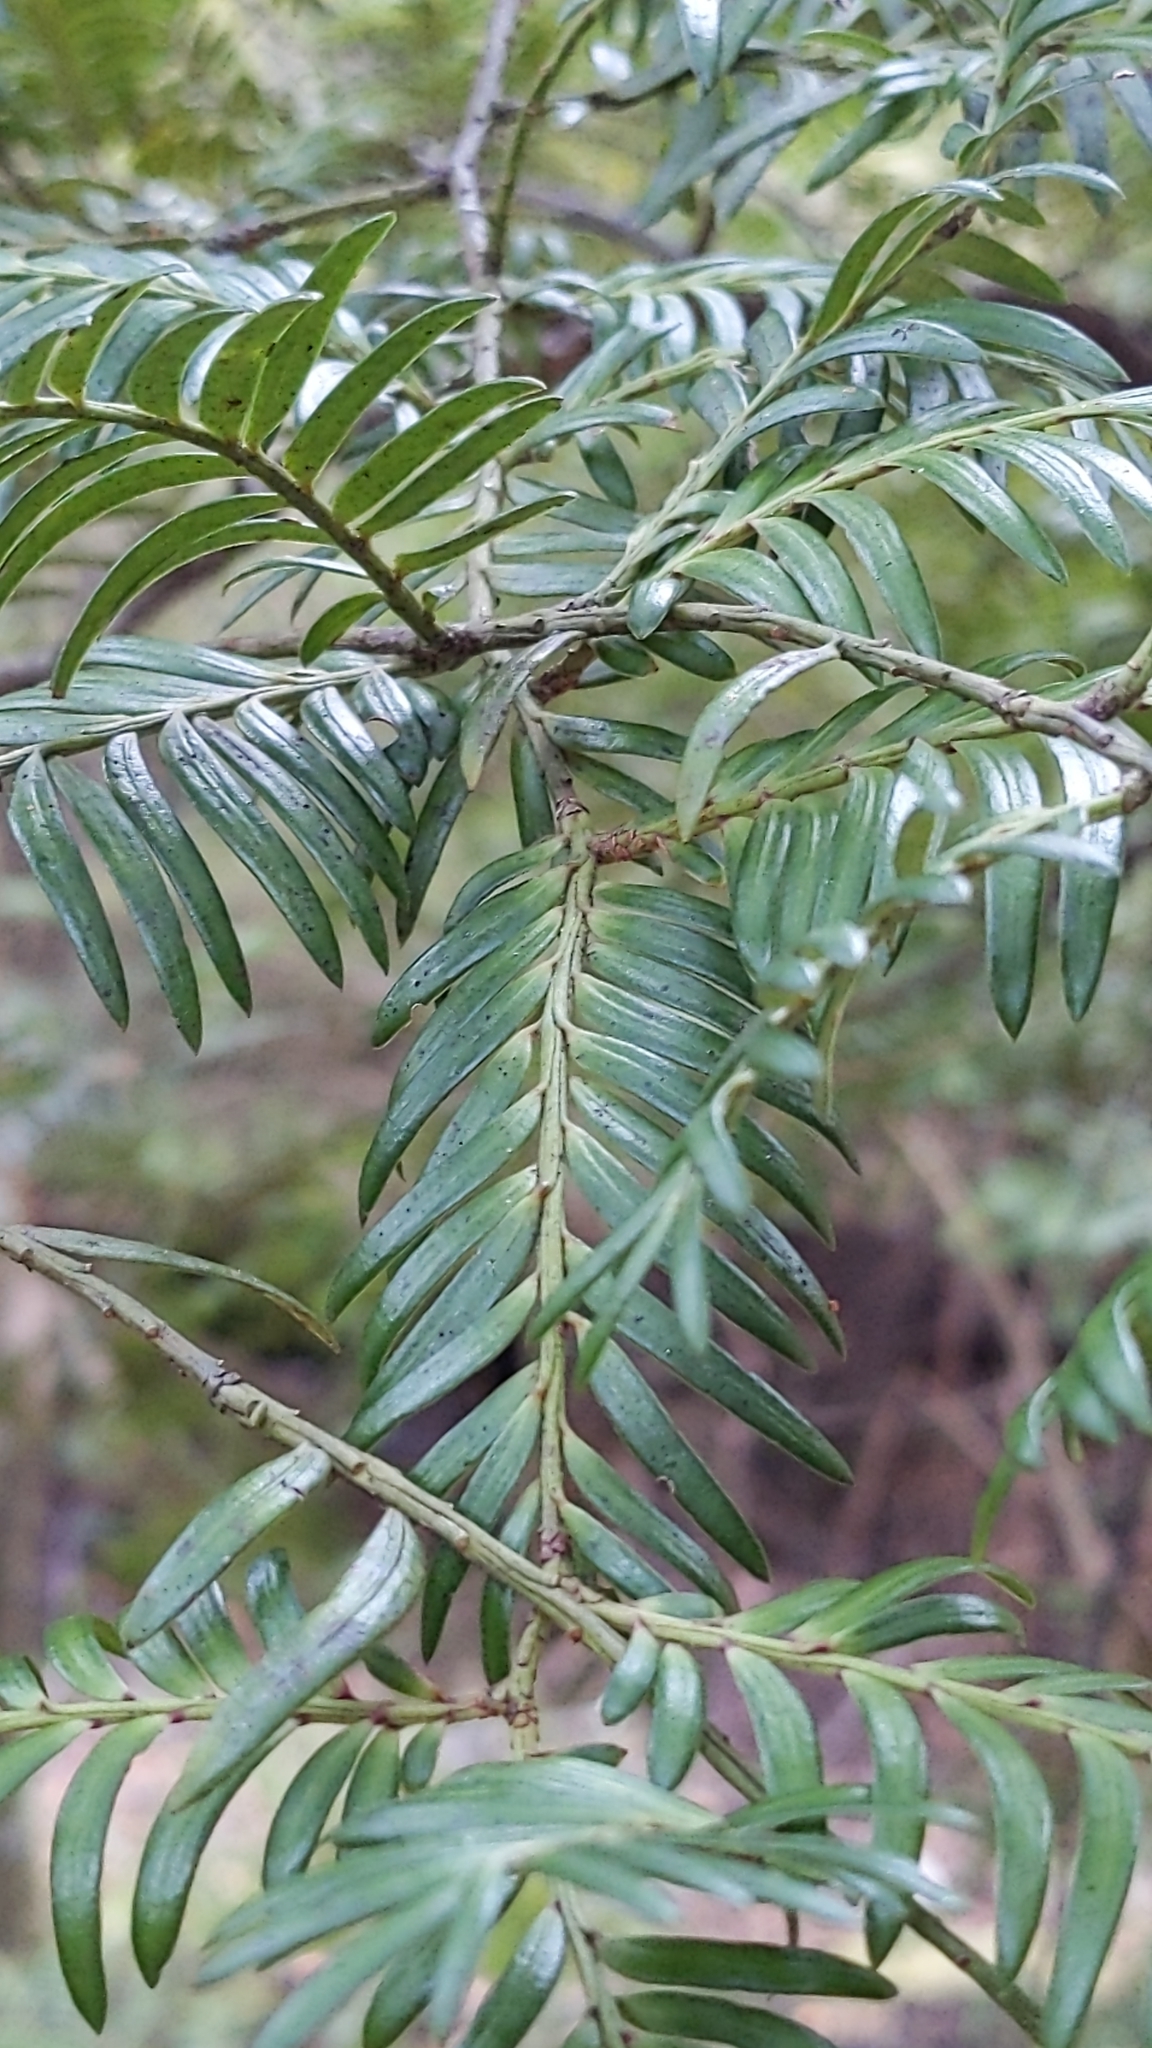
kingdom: Plantae
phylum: Tracheophyta
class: Pinopsida
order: Pinales
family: Podocarpaceae
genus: Prumnopitys
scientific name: Prumnopitys ferruginea
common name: Brown pine
